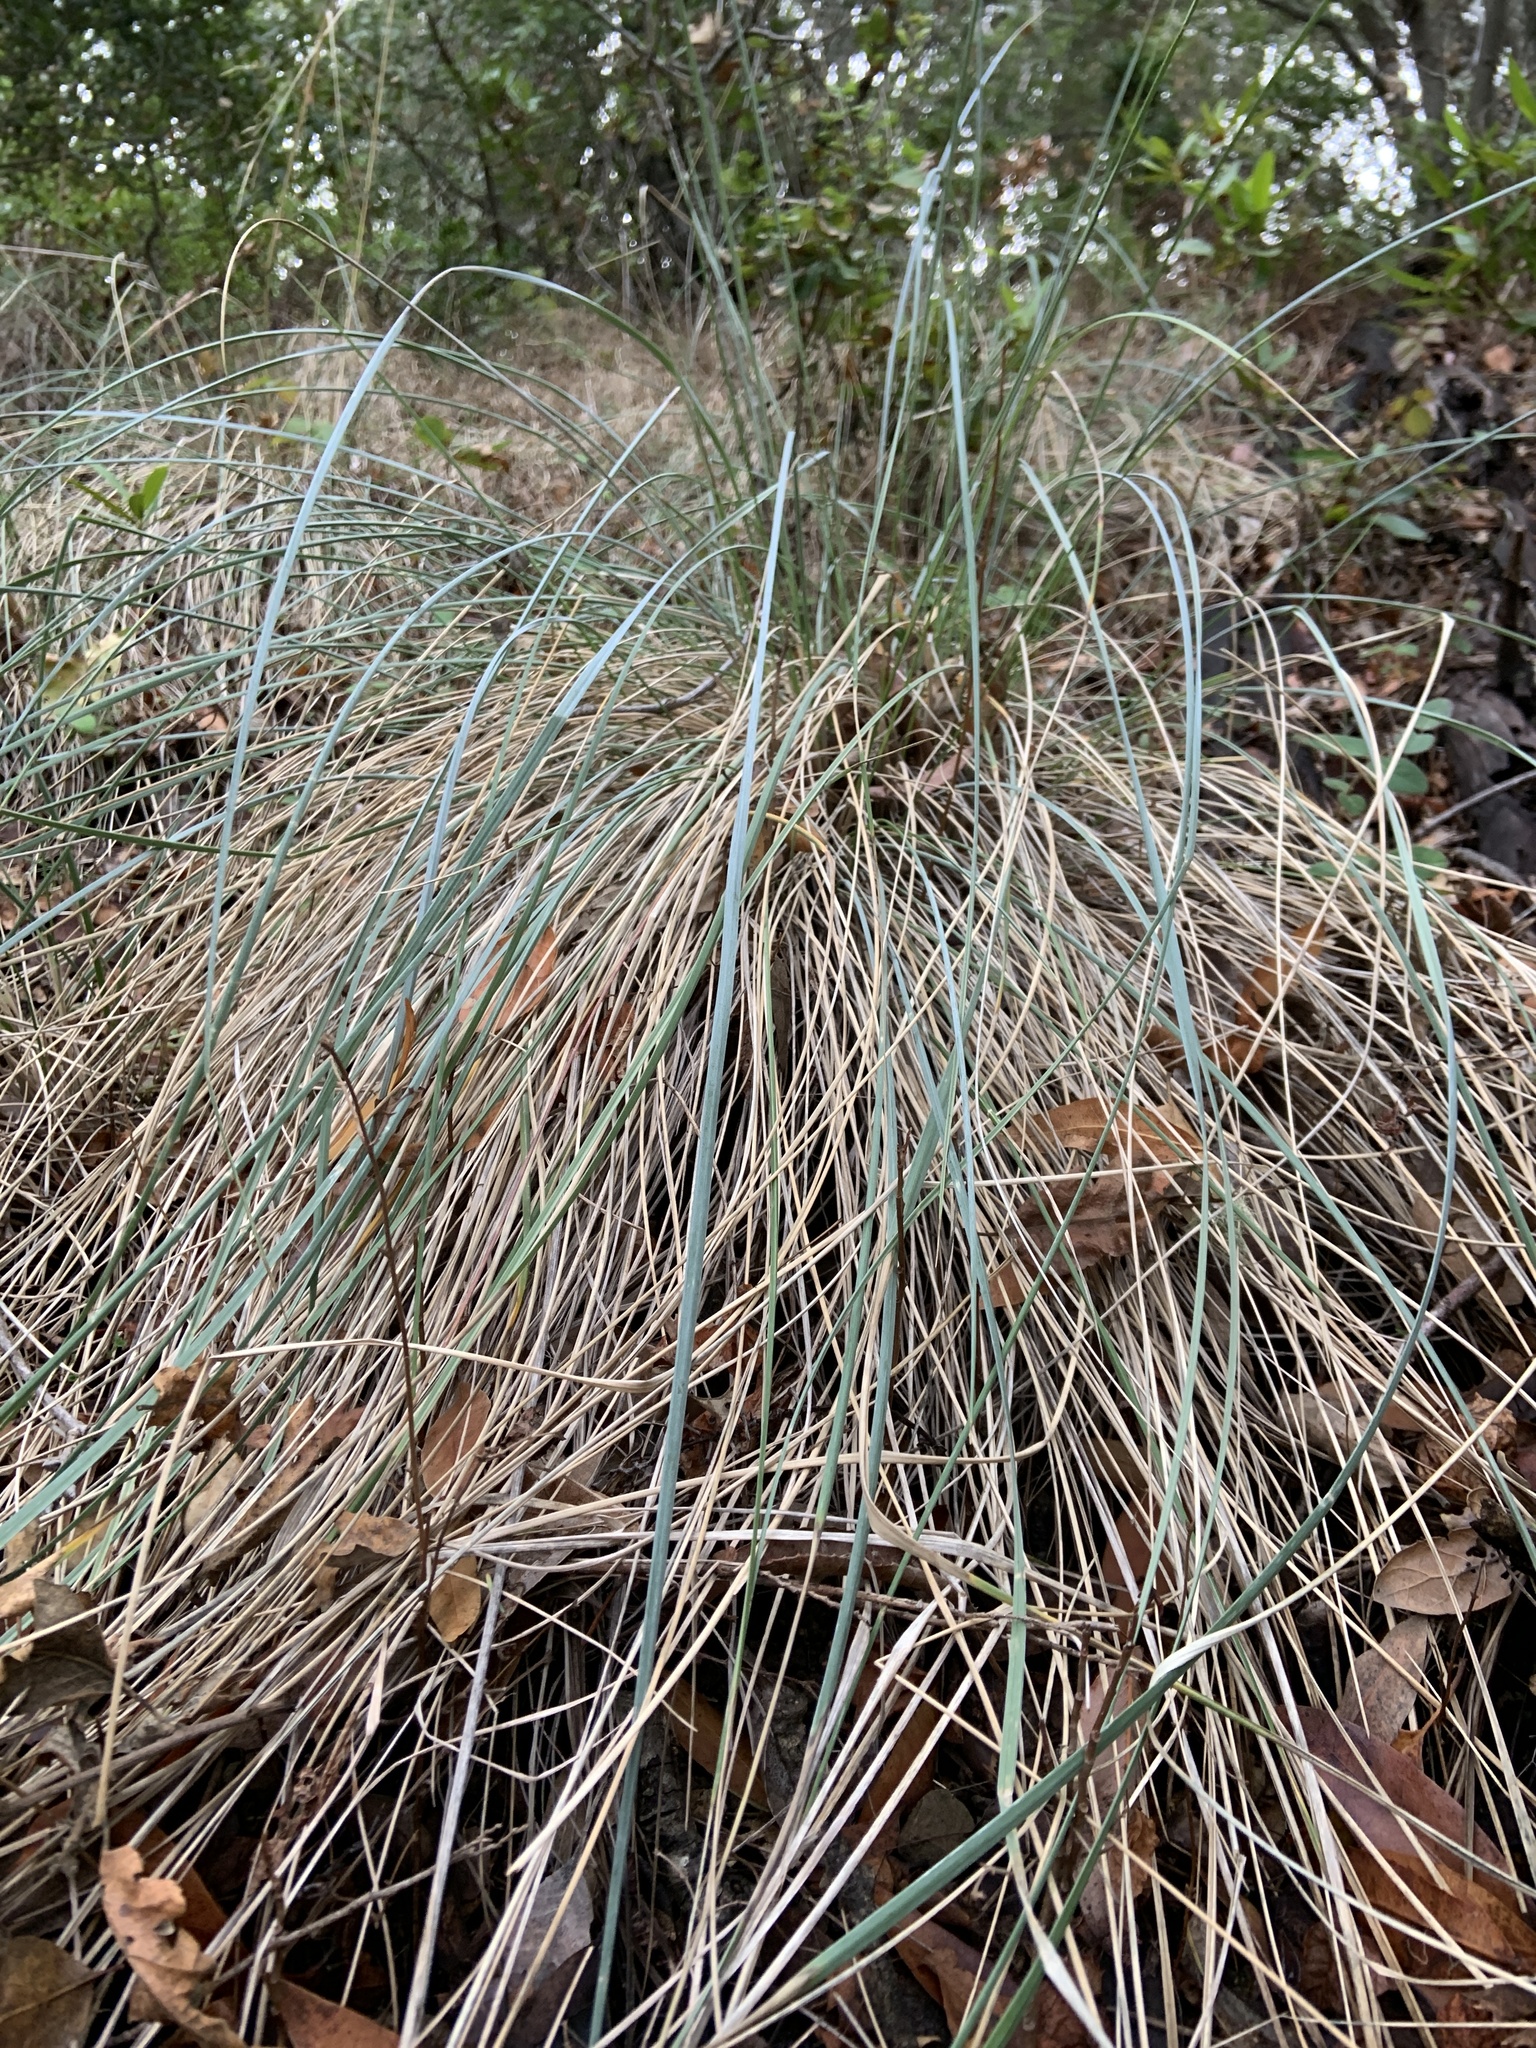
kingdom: Plantae
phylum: Tracheophyta
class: Liliopsida
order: Poales
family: Poaceae
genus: Festuca
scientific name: Festuca californica
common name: California fescue
